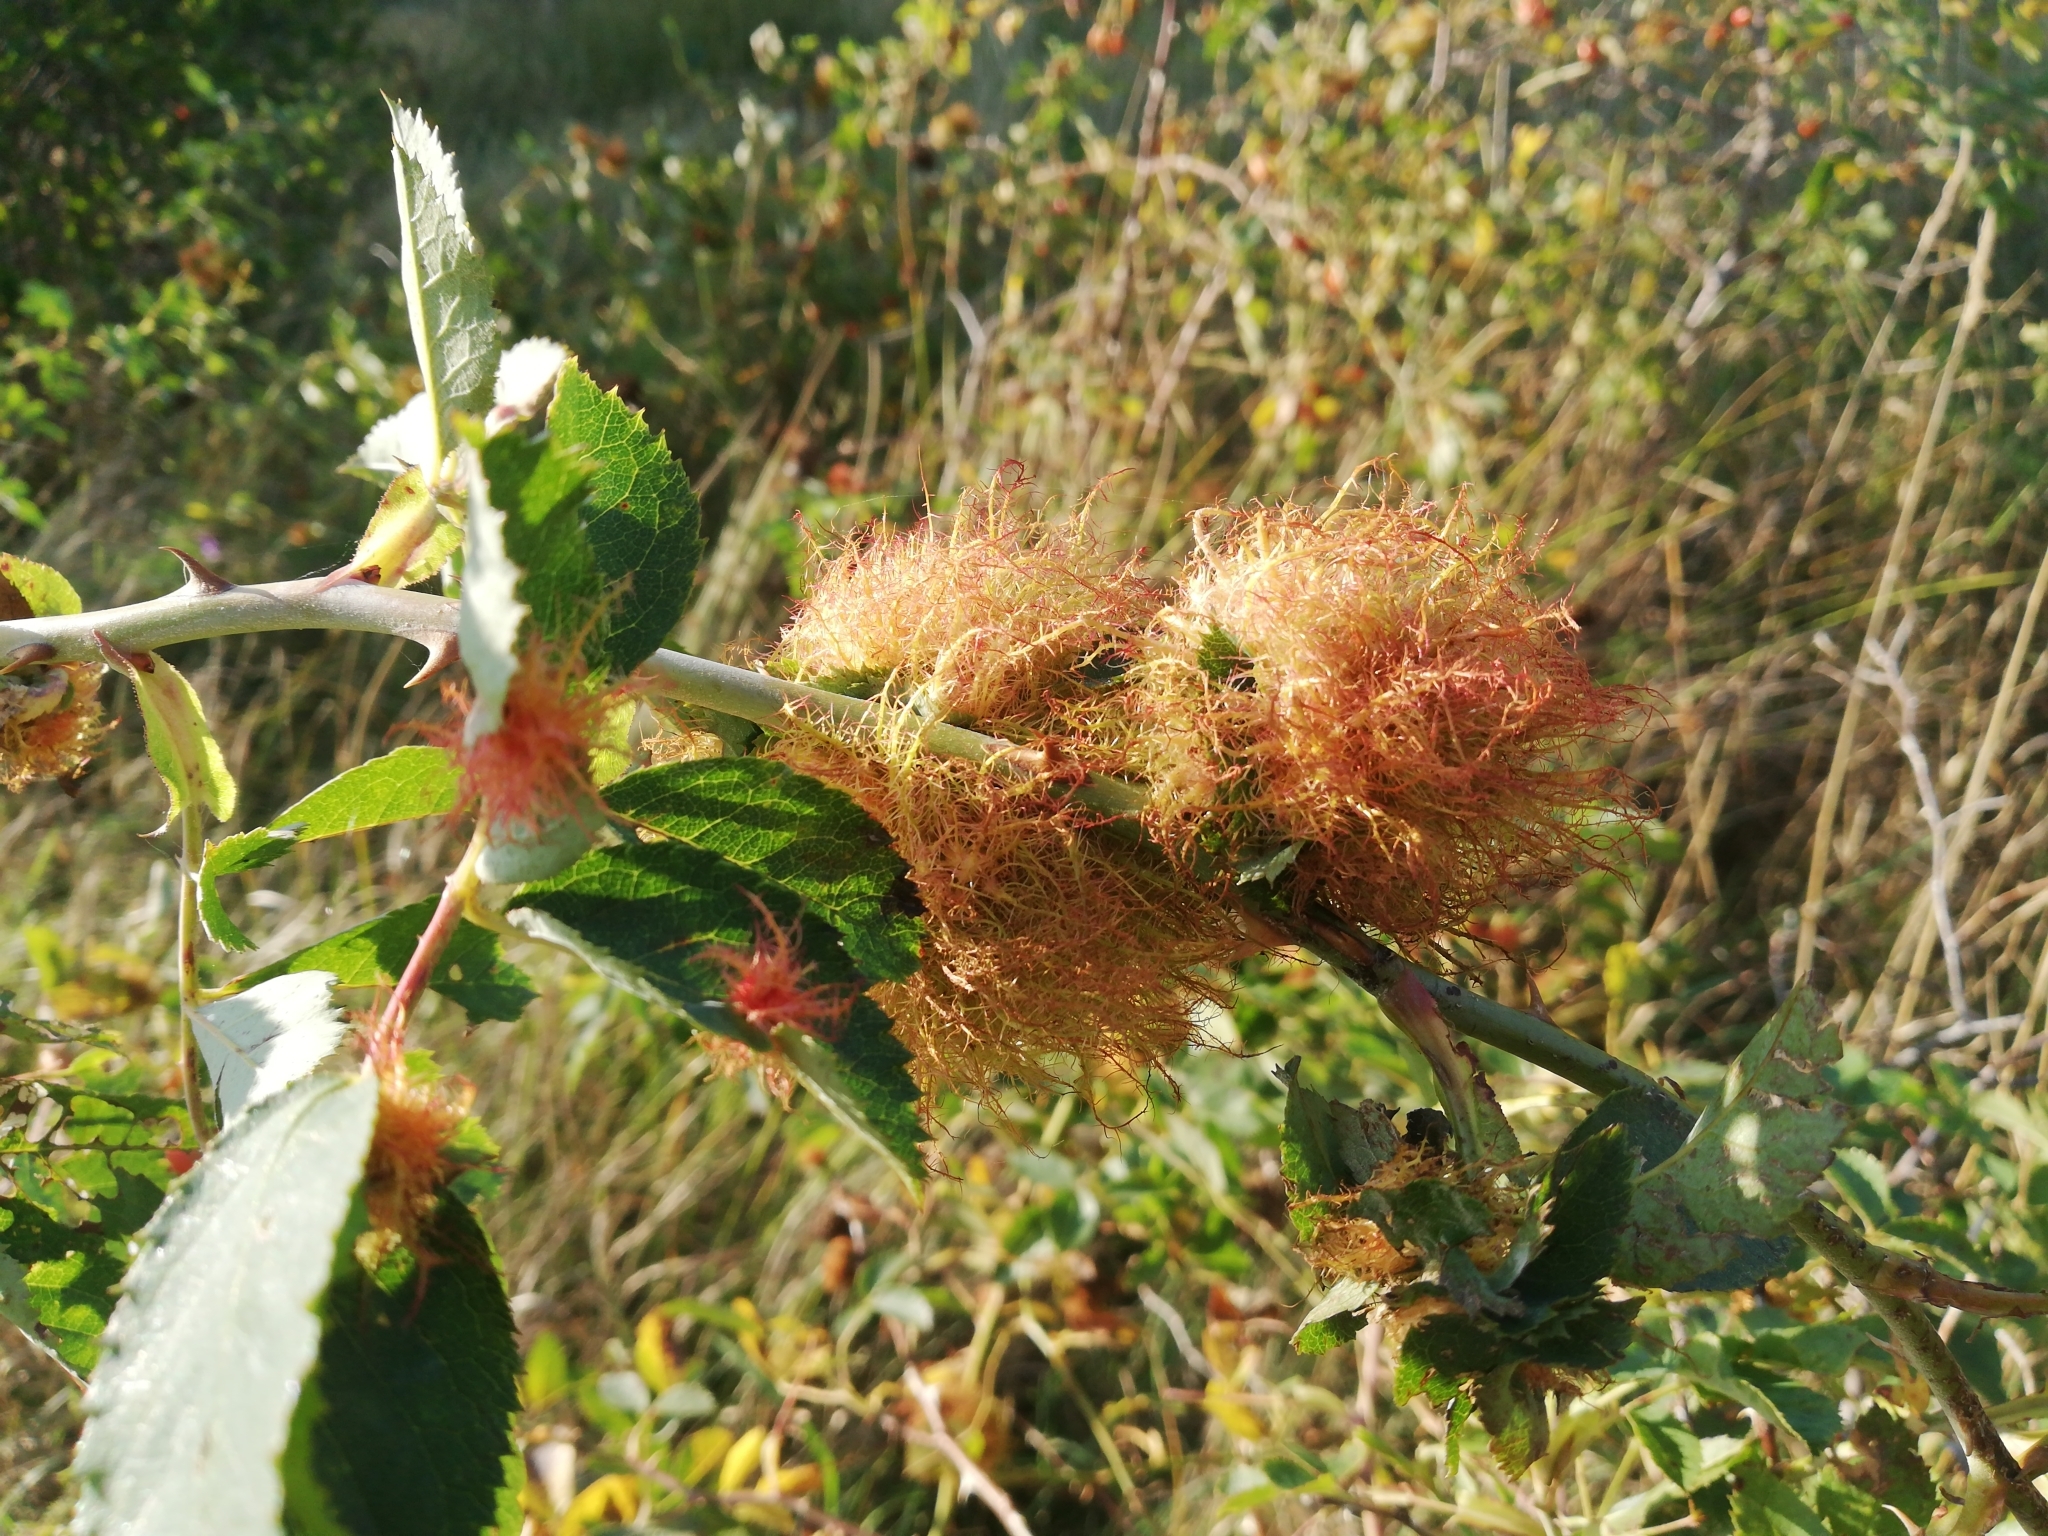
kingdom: Animalia
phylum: Arthropoda
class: Insecta
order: Hymenoptera
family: Cynipidae
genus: Diplolepis
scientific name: Diplolepis rosae
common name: Bedeguar gall
